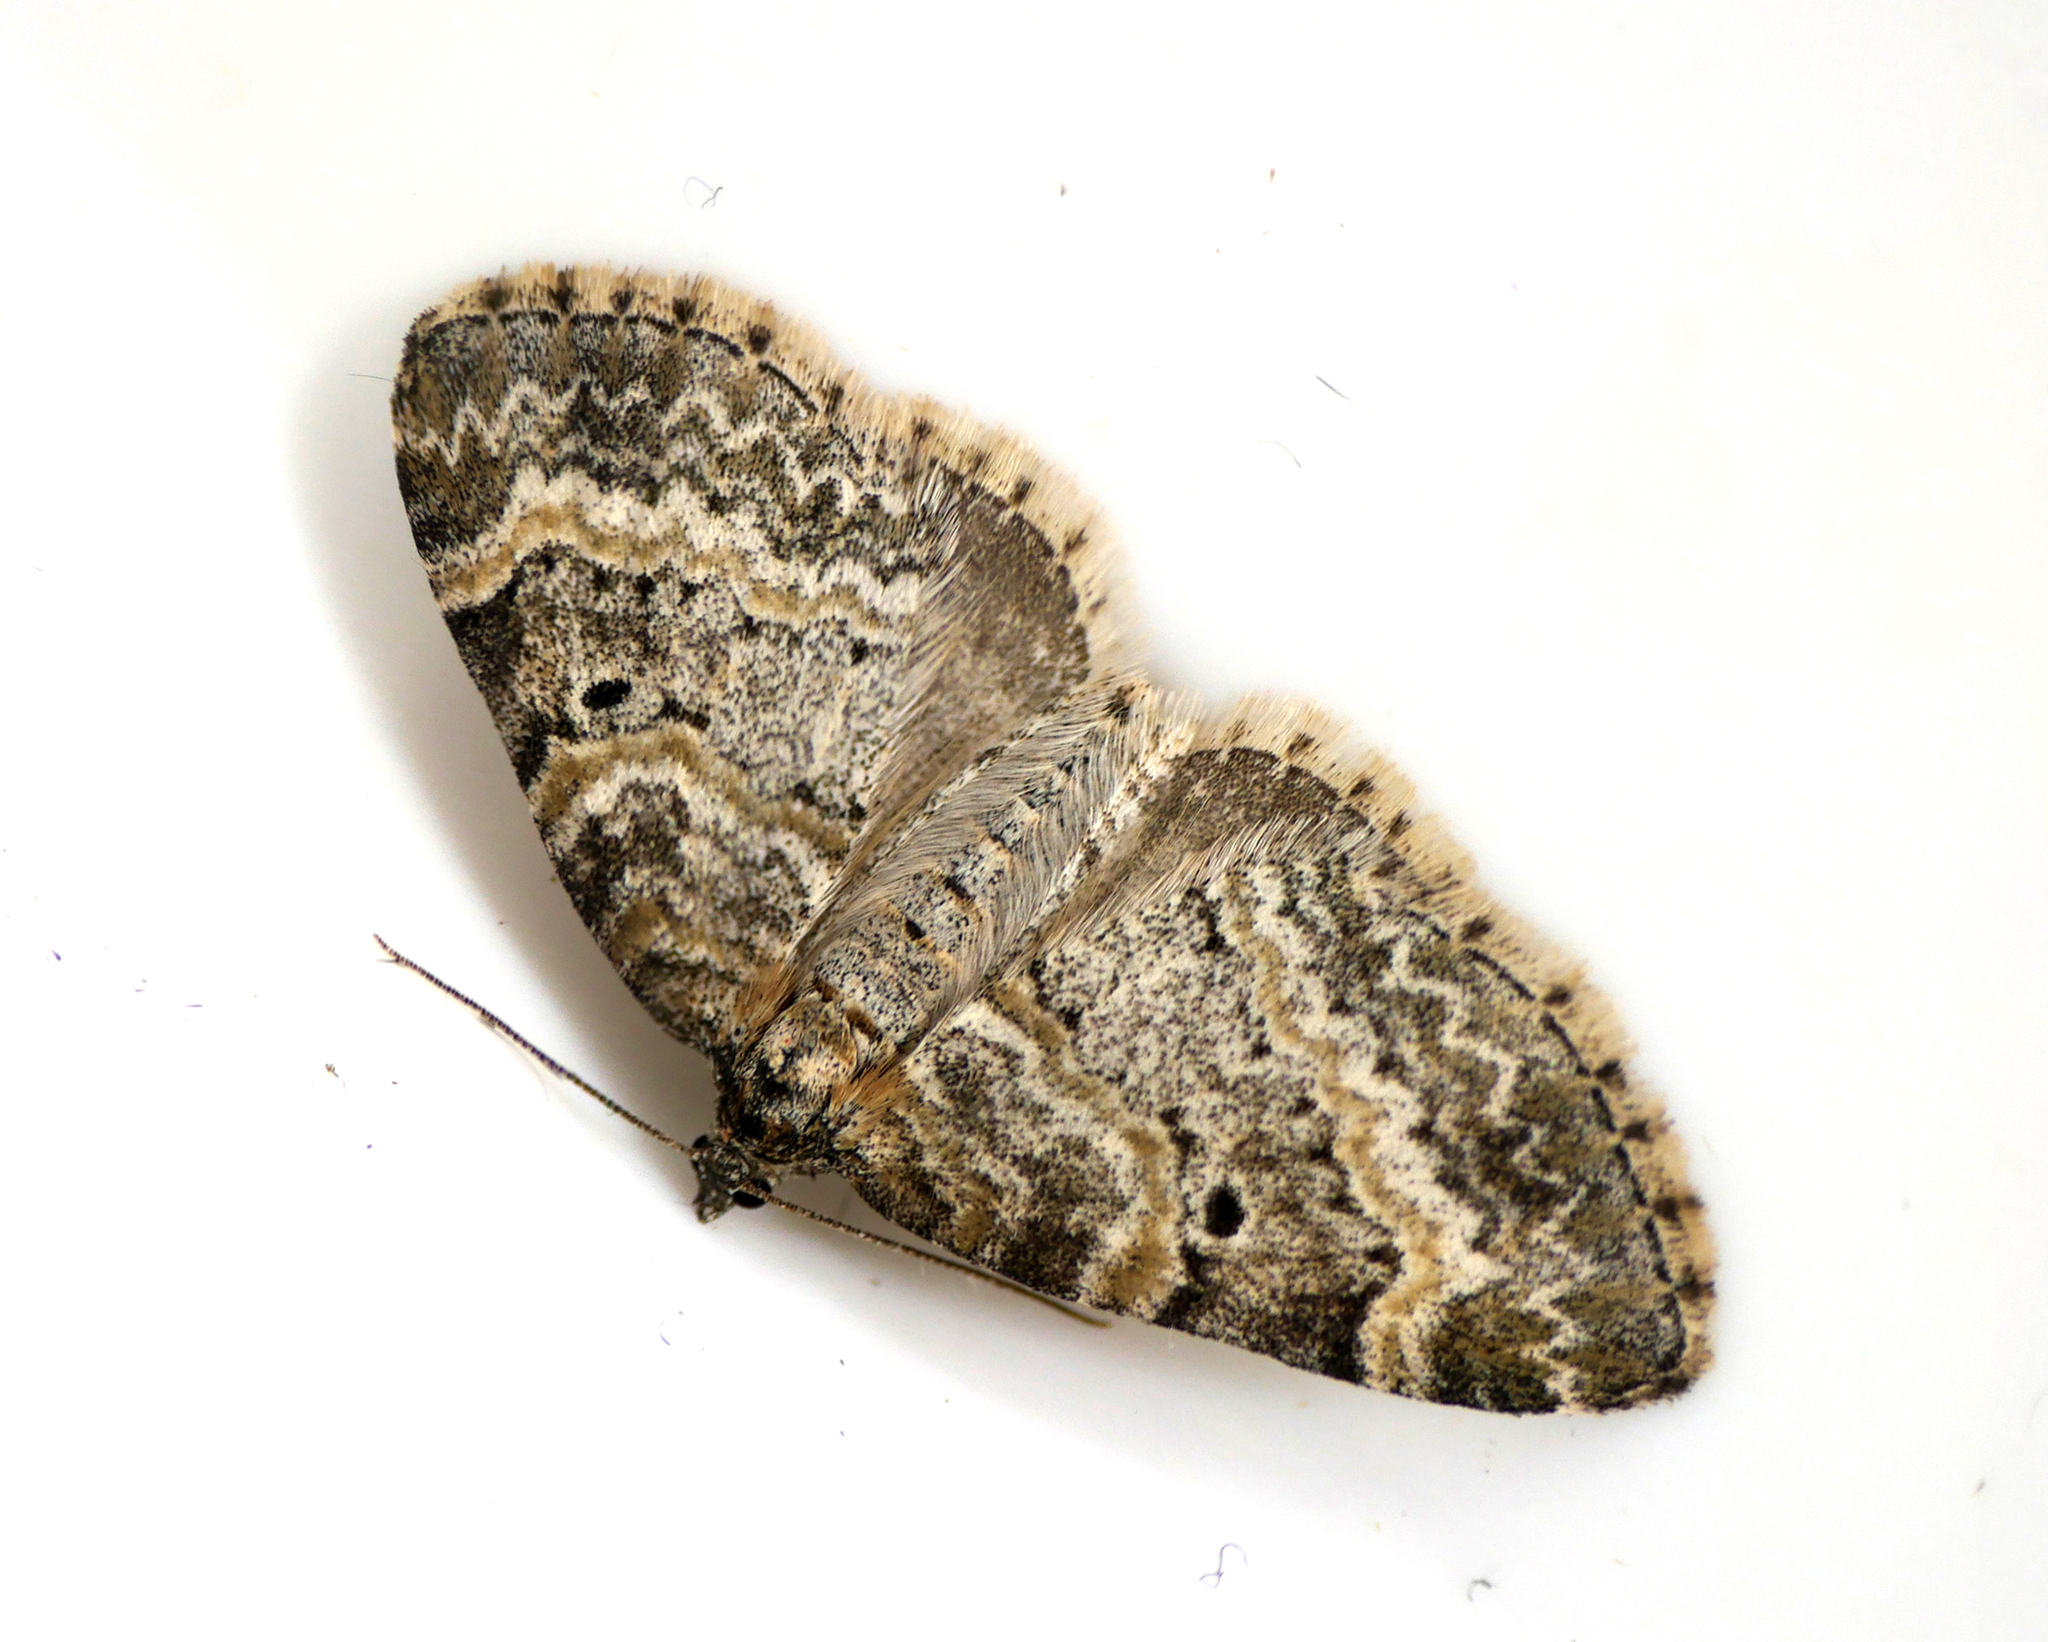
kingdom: Animalia
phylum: Arthropoda
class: Insecta
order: Lepidoptera
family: Geometridae
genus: Pterapherapteryx
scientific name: Pterapherapteryx sexalata
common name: Small seraphim
